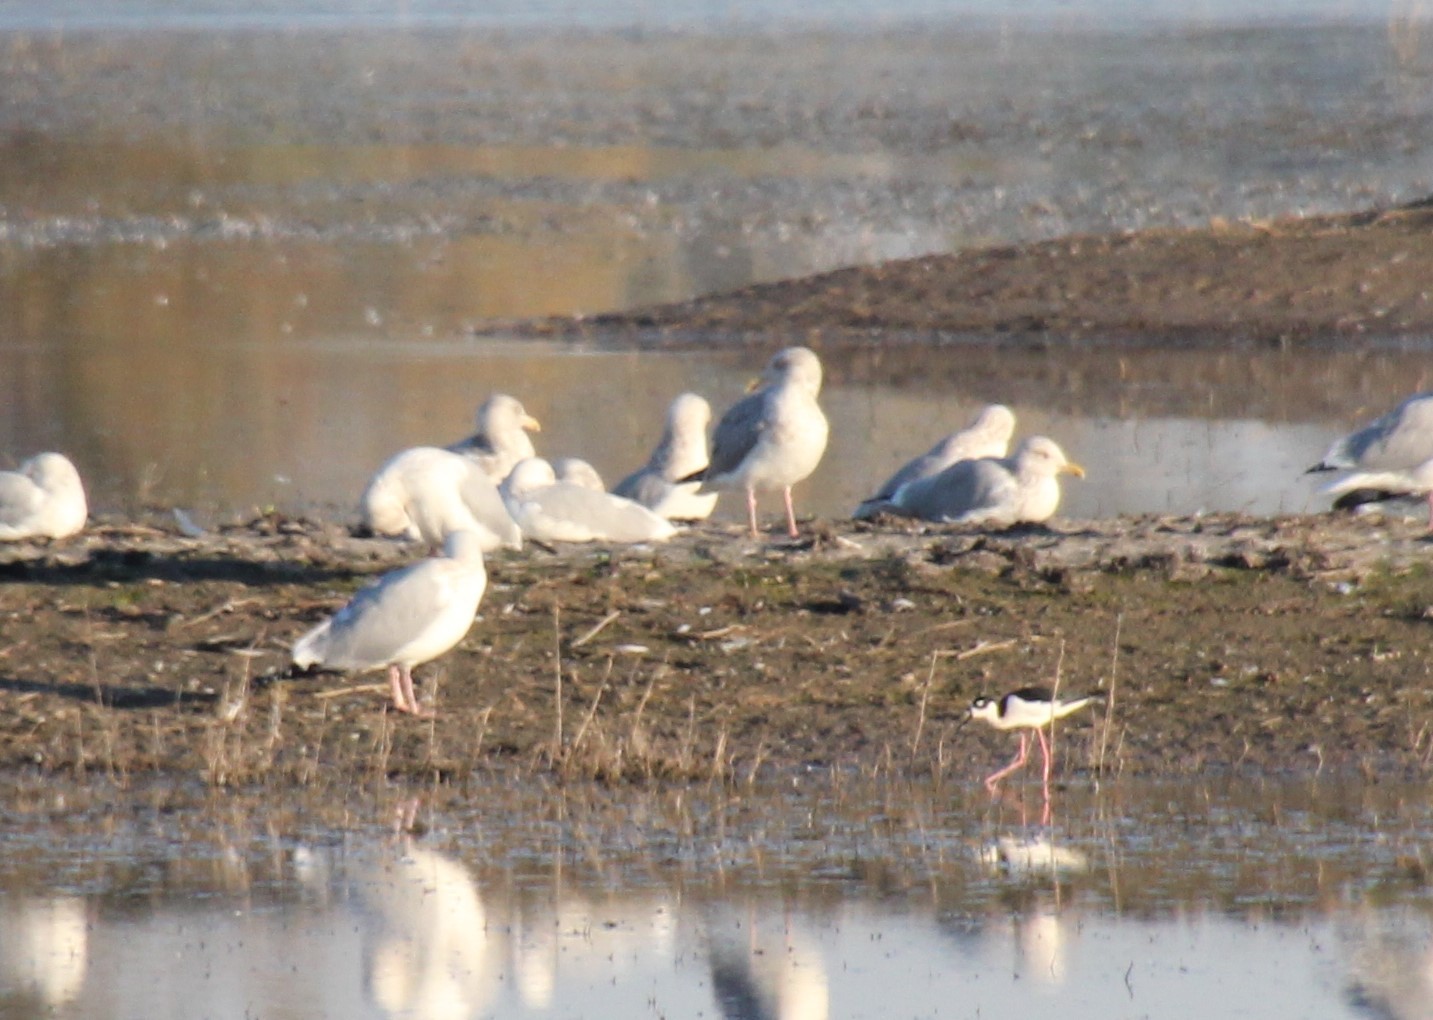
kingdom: Animalia
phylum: Chordata
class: Aves
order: Charadriiformes
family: Laridae
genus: Larus
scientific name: Larus argentatus
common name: Herring gull
